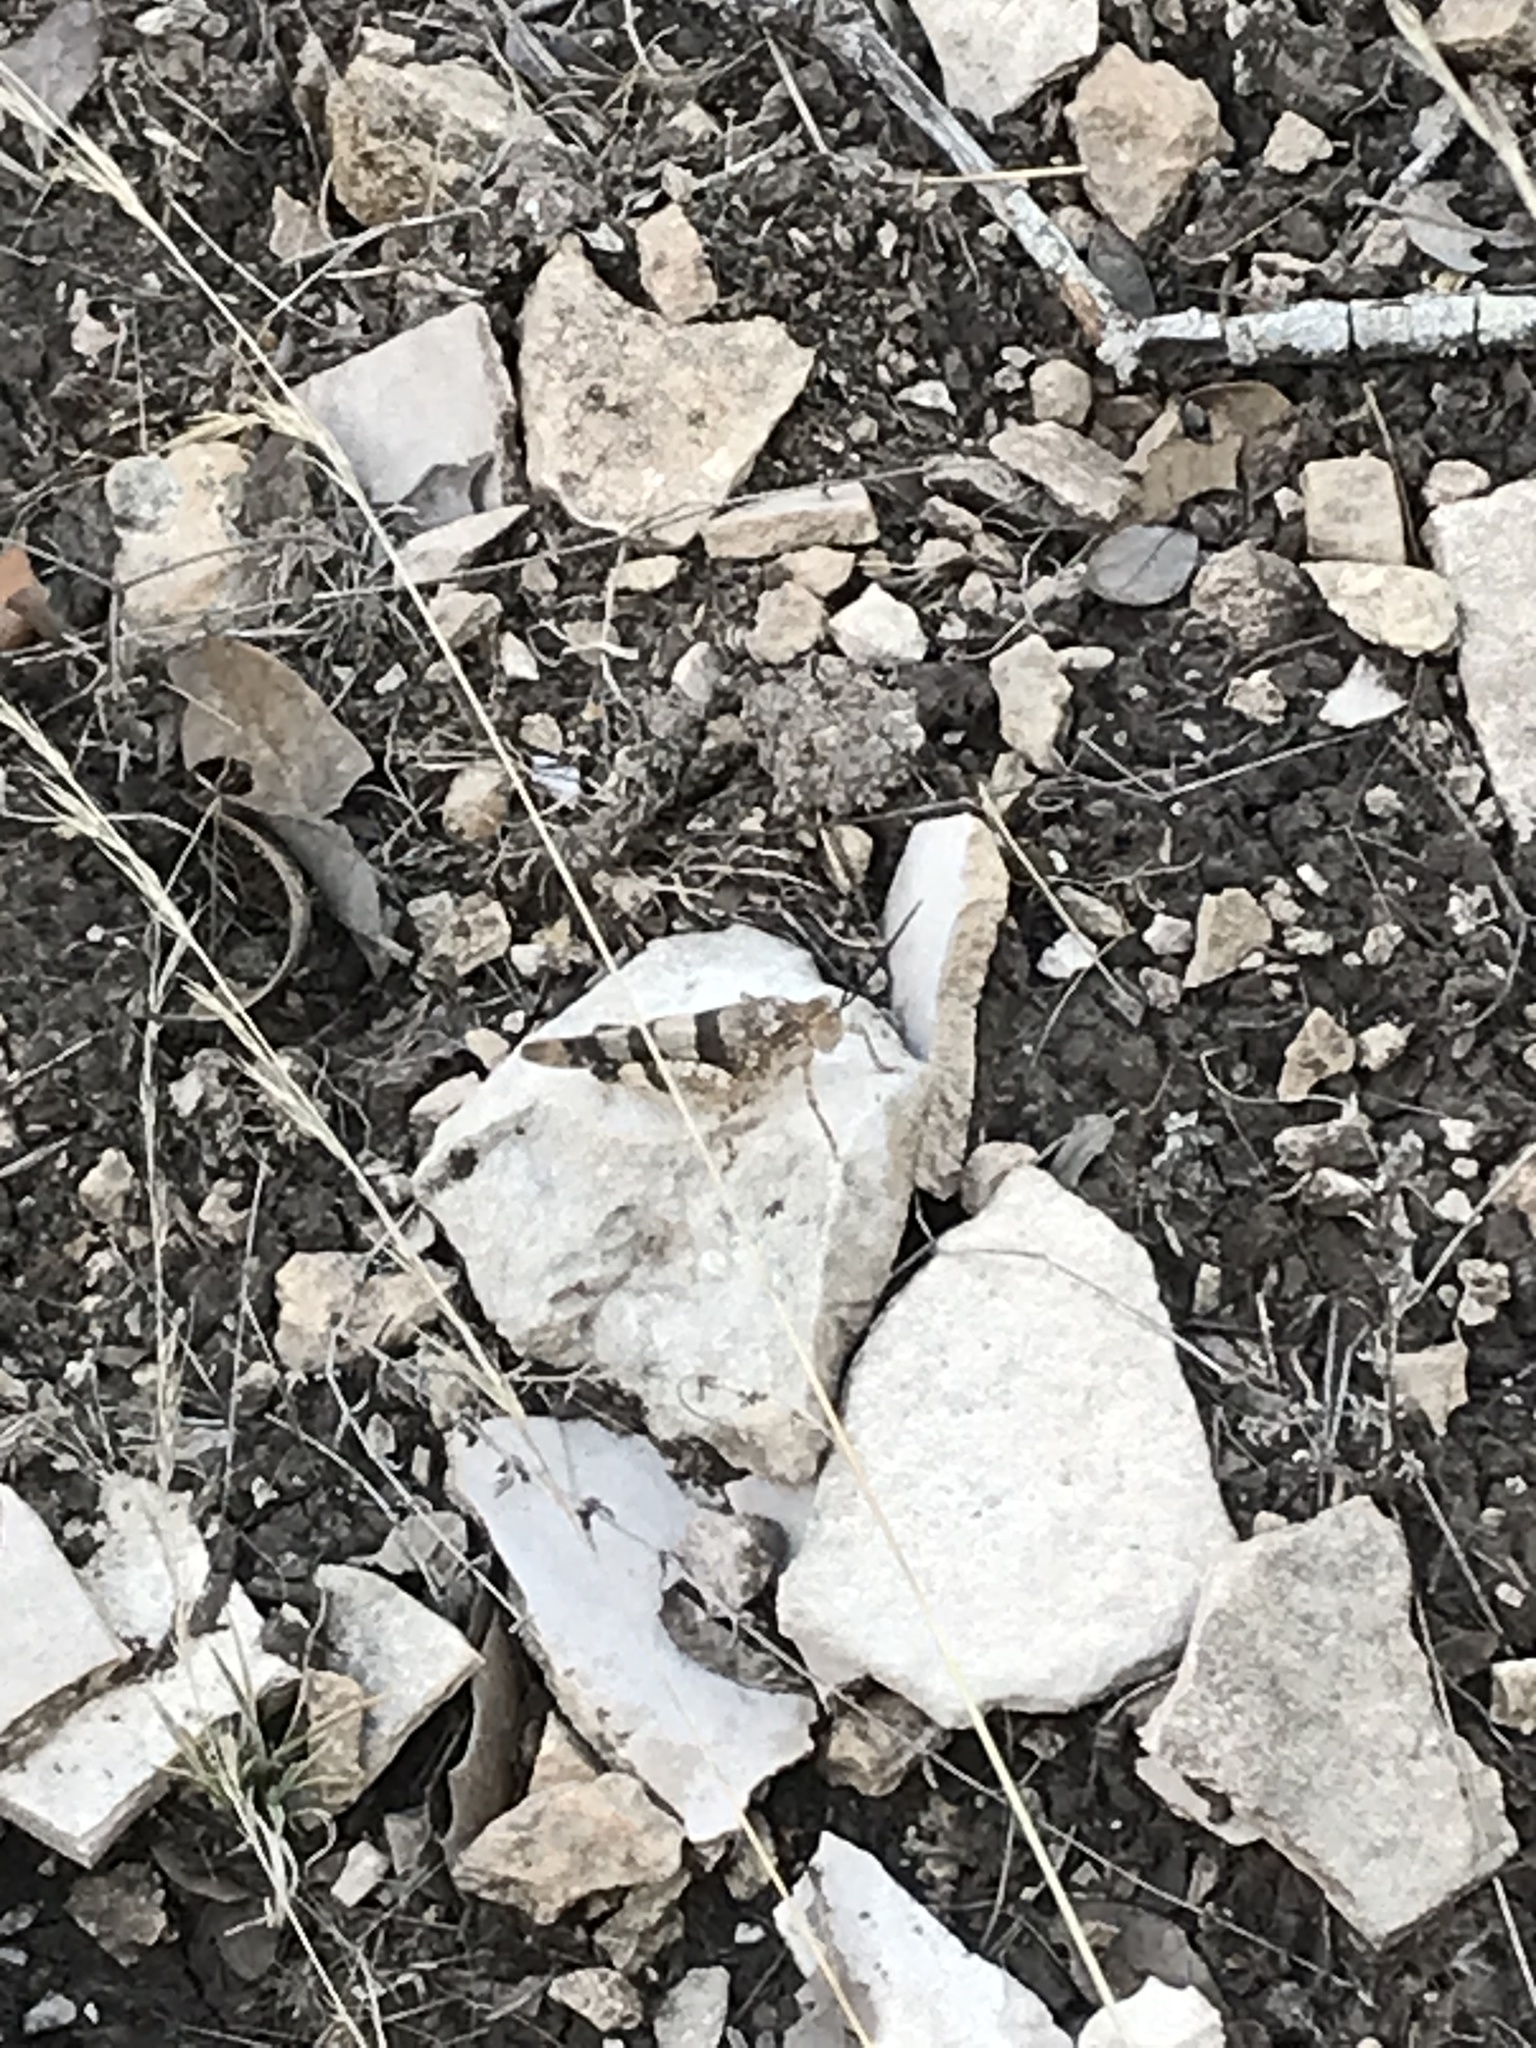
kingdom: Animalia
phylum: Arthropoda
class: Insecta
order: Orthoptera
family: Acrididae
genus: Hadrotettix
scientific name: Hadrotettix trifasciatus
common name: Threebanded grasshopper
